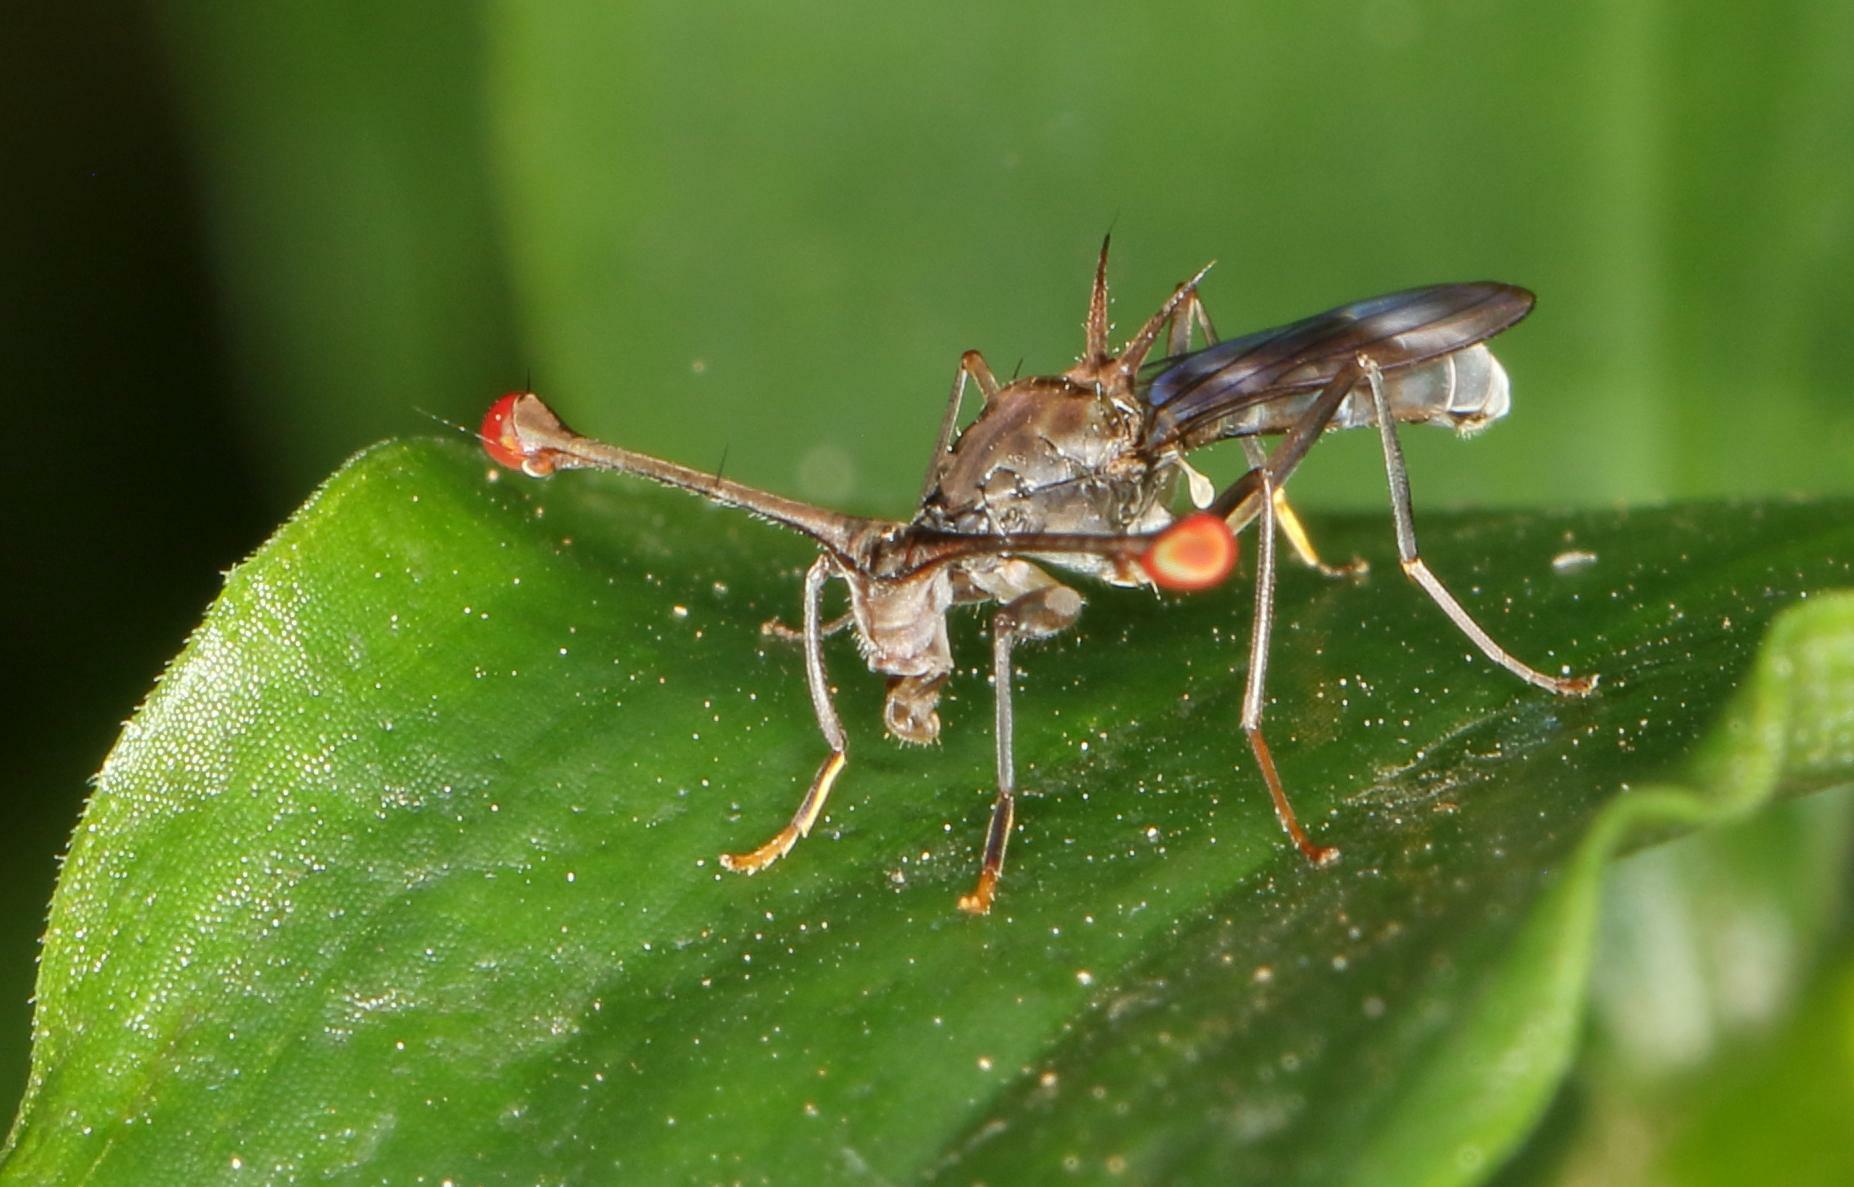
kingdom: Animalia
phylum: Arthropoda
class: Insecta
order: Diptera
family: Diopsidae
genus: Diasemopsis
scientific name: Diasemopsis obstans
